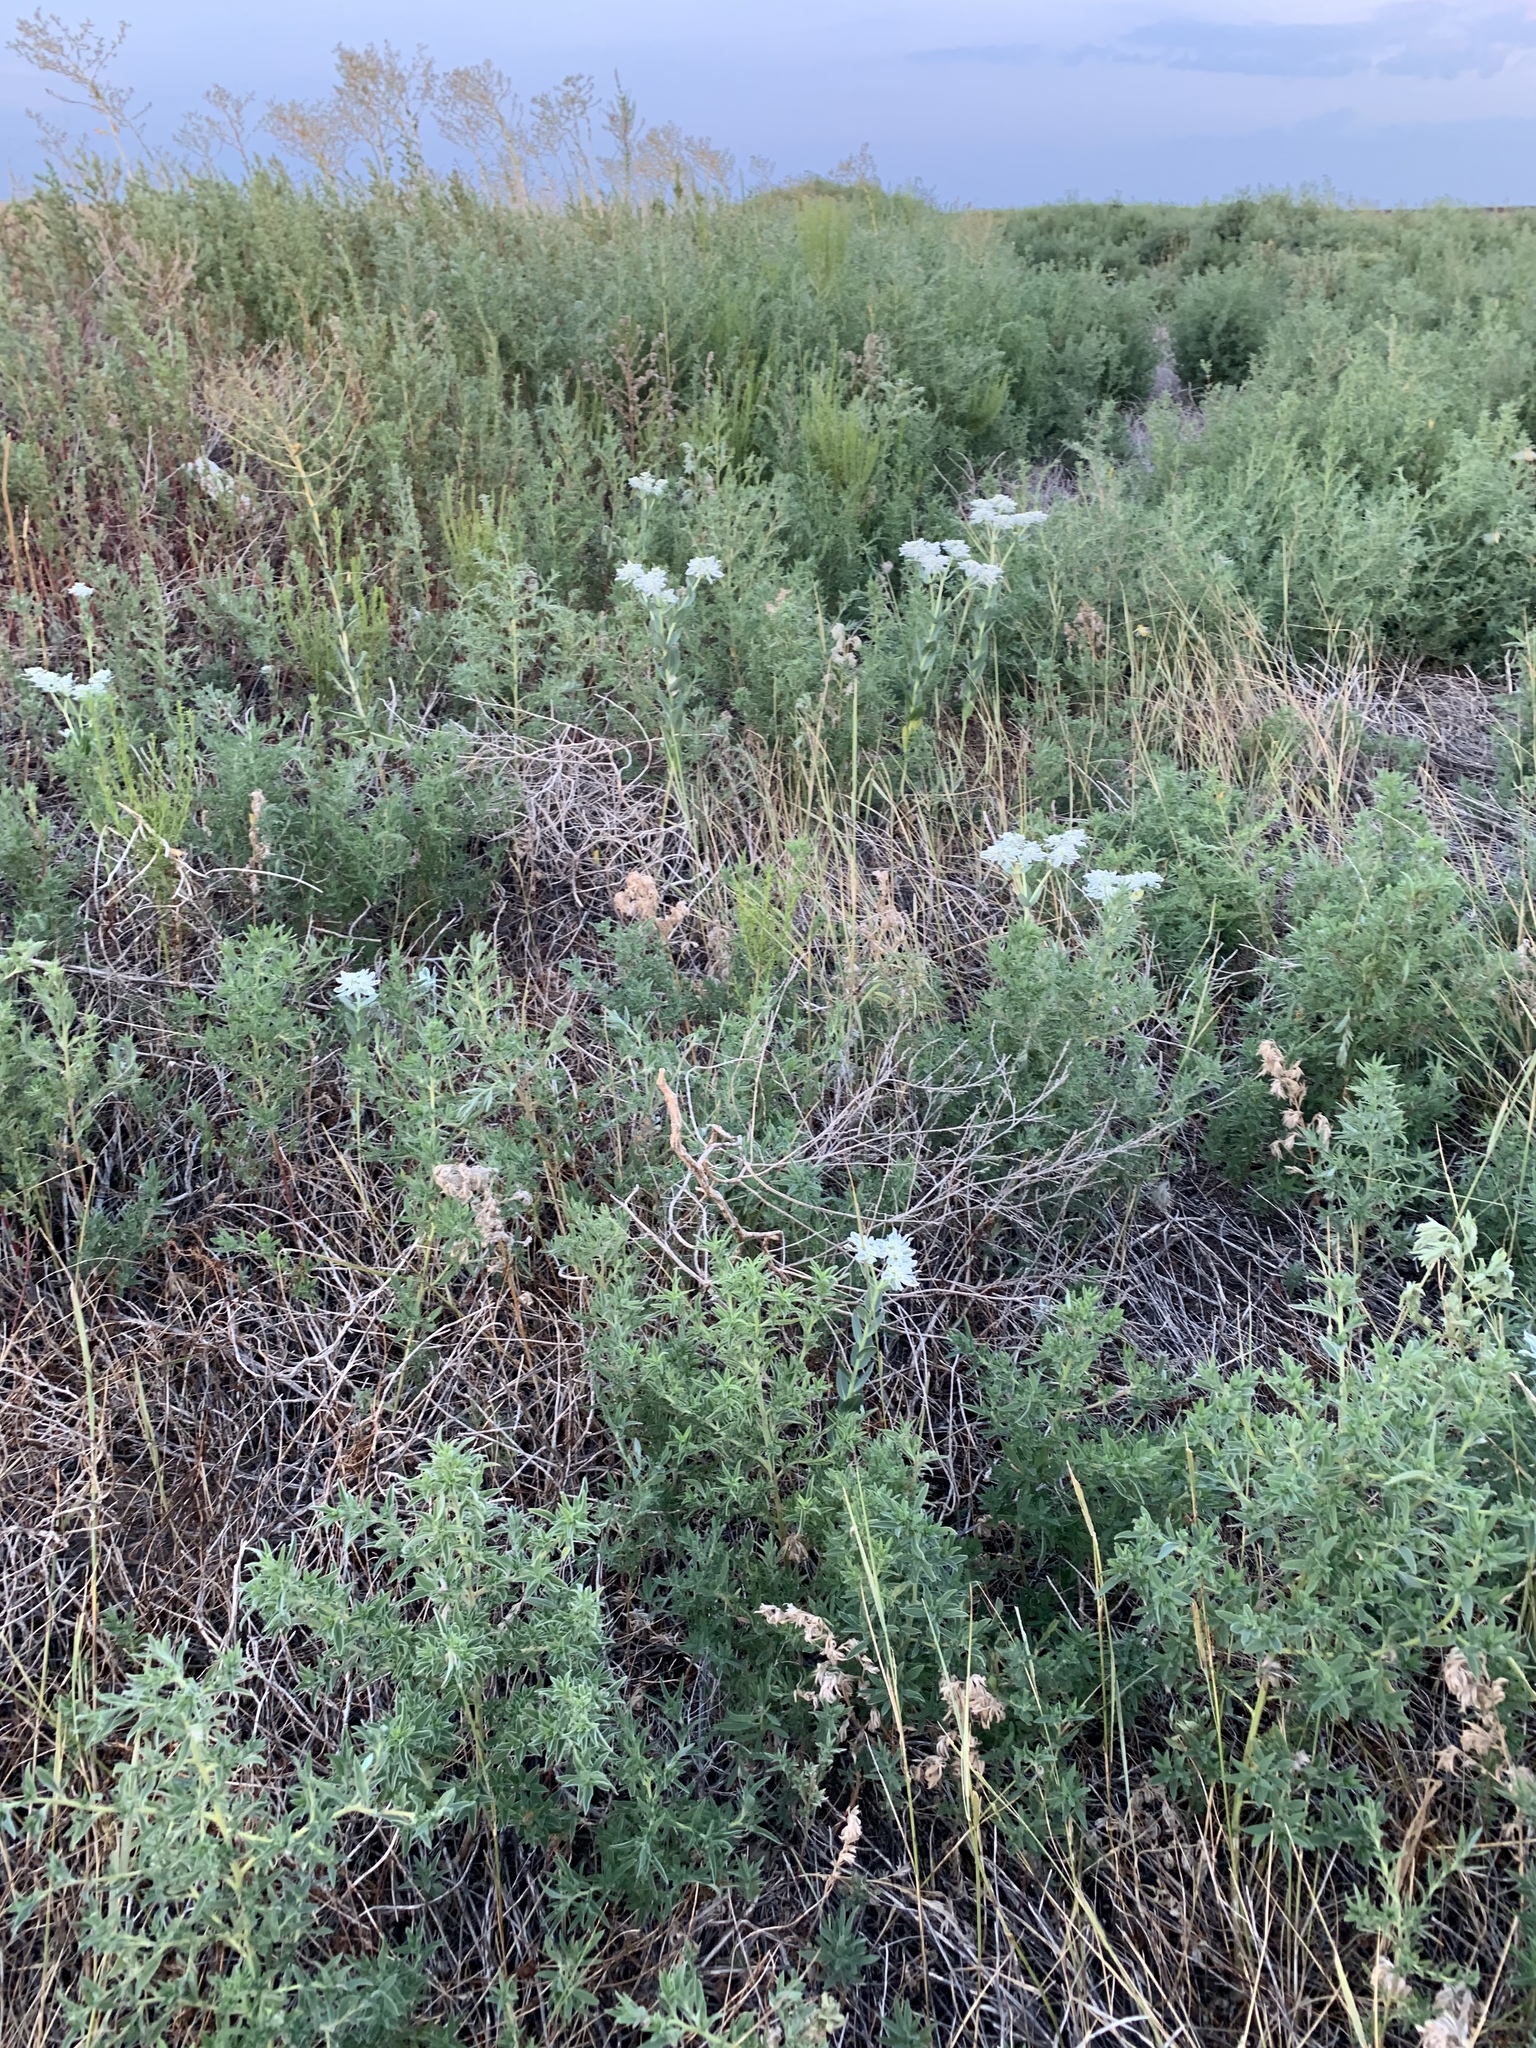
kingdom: Plantae
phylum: Tracheophyta
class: Magnoliopsida
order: Malpighiales
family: Euphorbiaceae
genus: Euphorbia
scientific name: Euphorbia marginata
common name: Ghostweed
